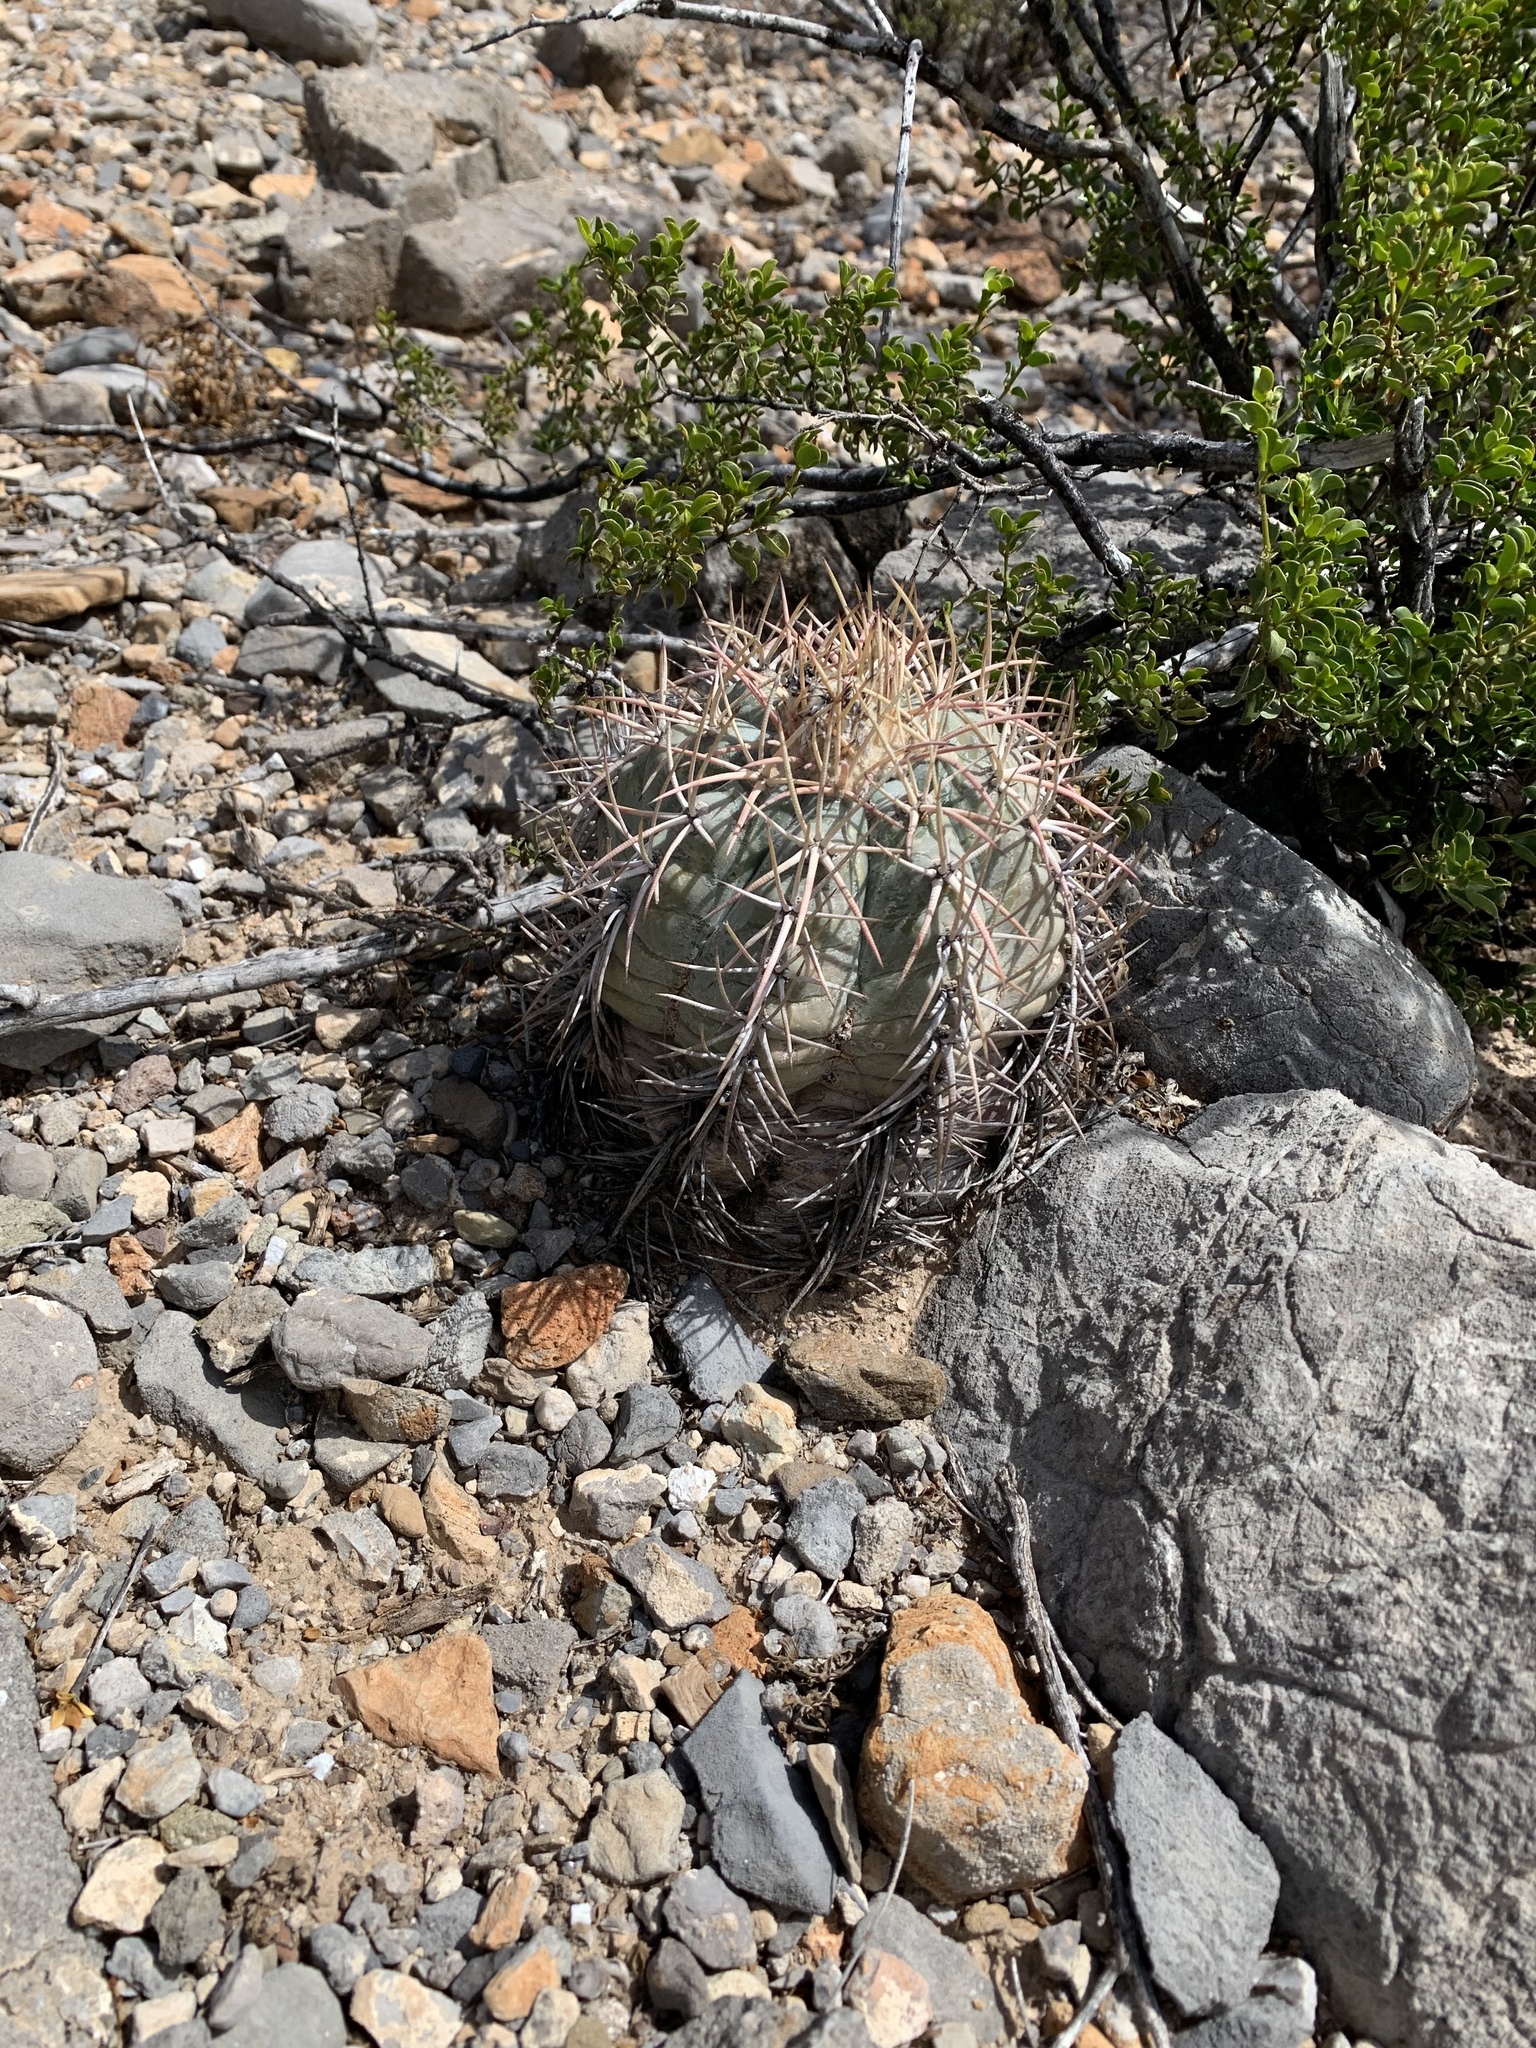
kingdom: Plantae
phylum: Tracheophyta
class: Magnoliopsida
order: Caryophyllales
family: Cactaceae
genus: Echinocactus
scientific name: Echinocactus horizonthalonius
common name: Devilshead
